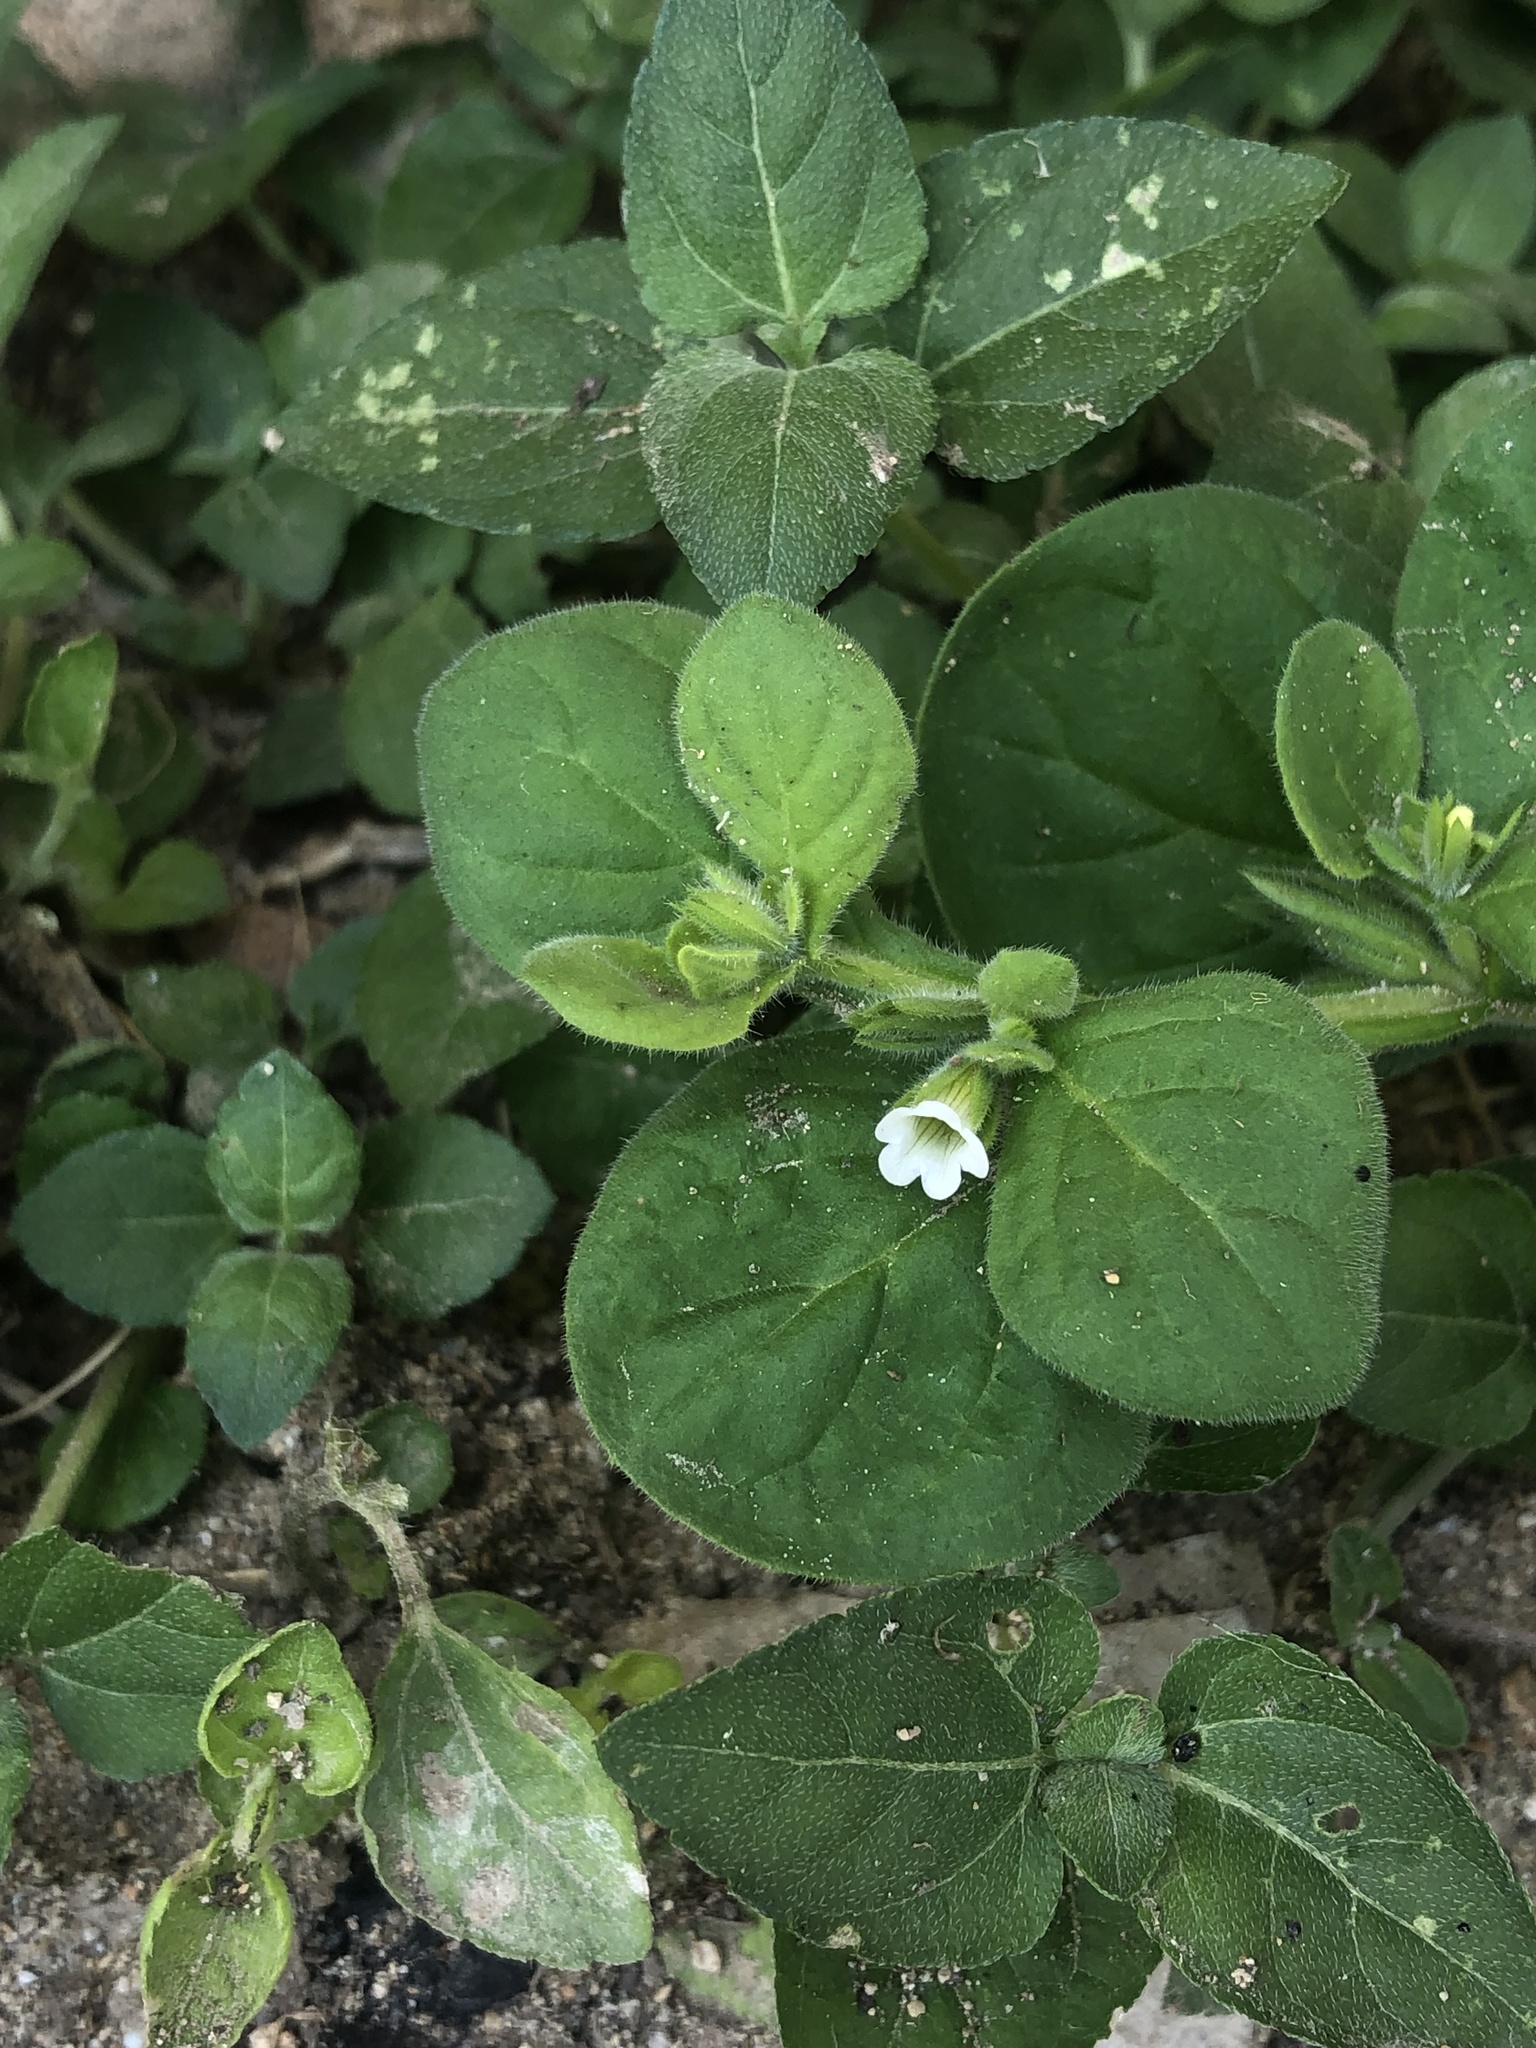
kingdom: Plantae
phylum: Tracheophyta
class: Magnoliopsida
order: Boraginales
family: Namaceae
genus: Nama
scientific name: Nama jamaicensis
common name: Jamaicanweed
